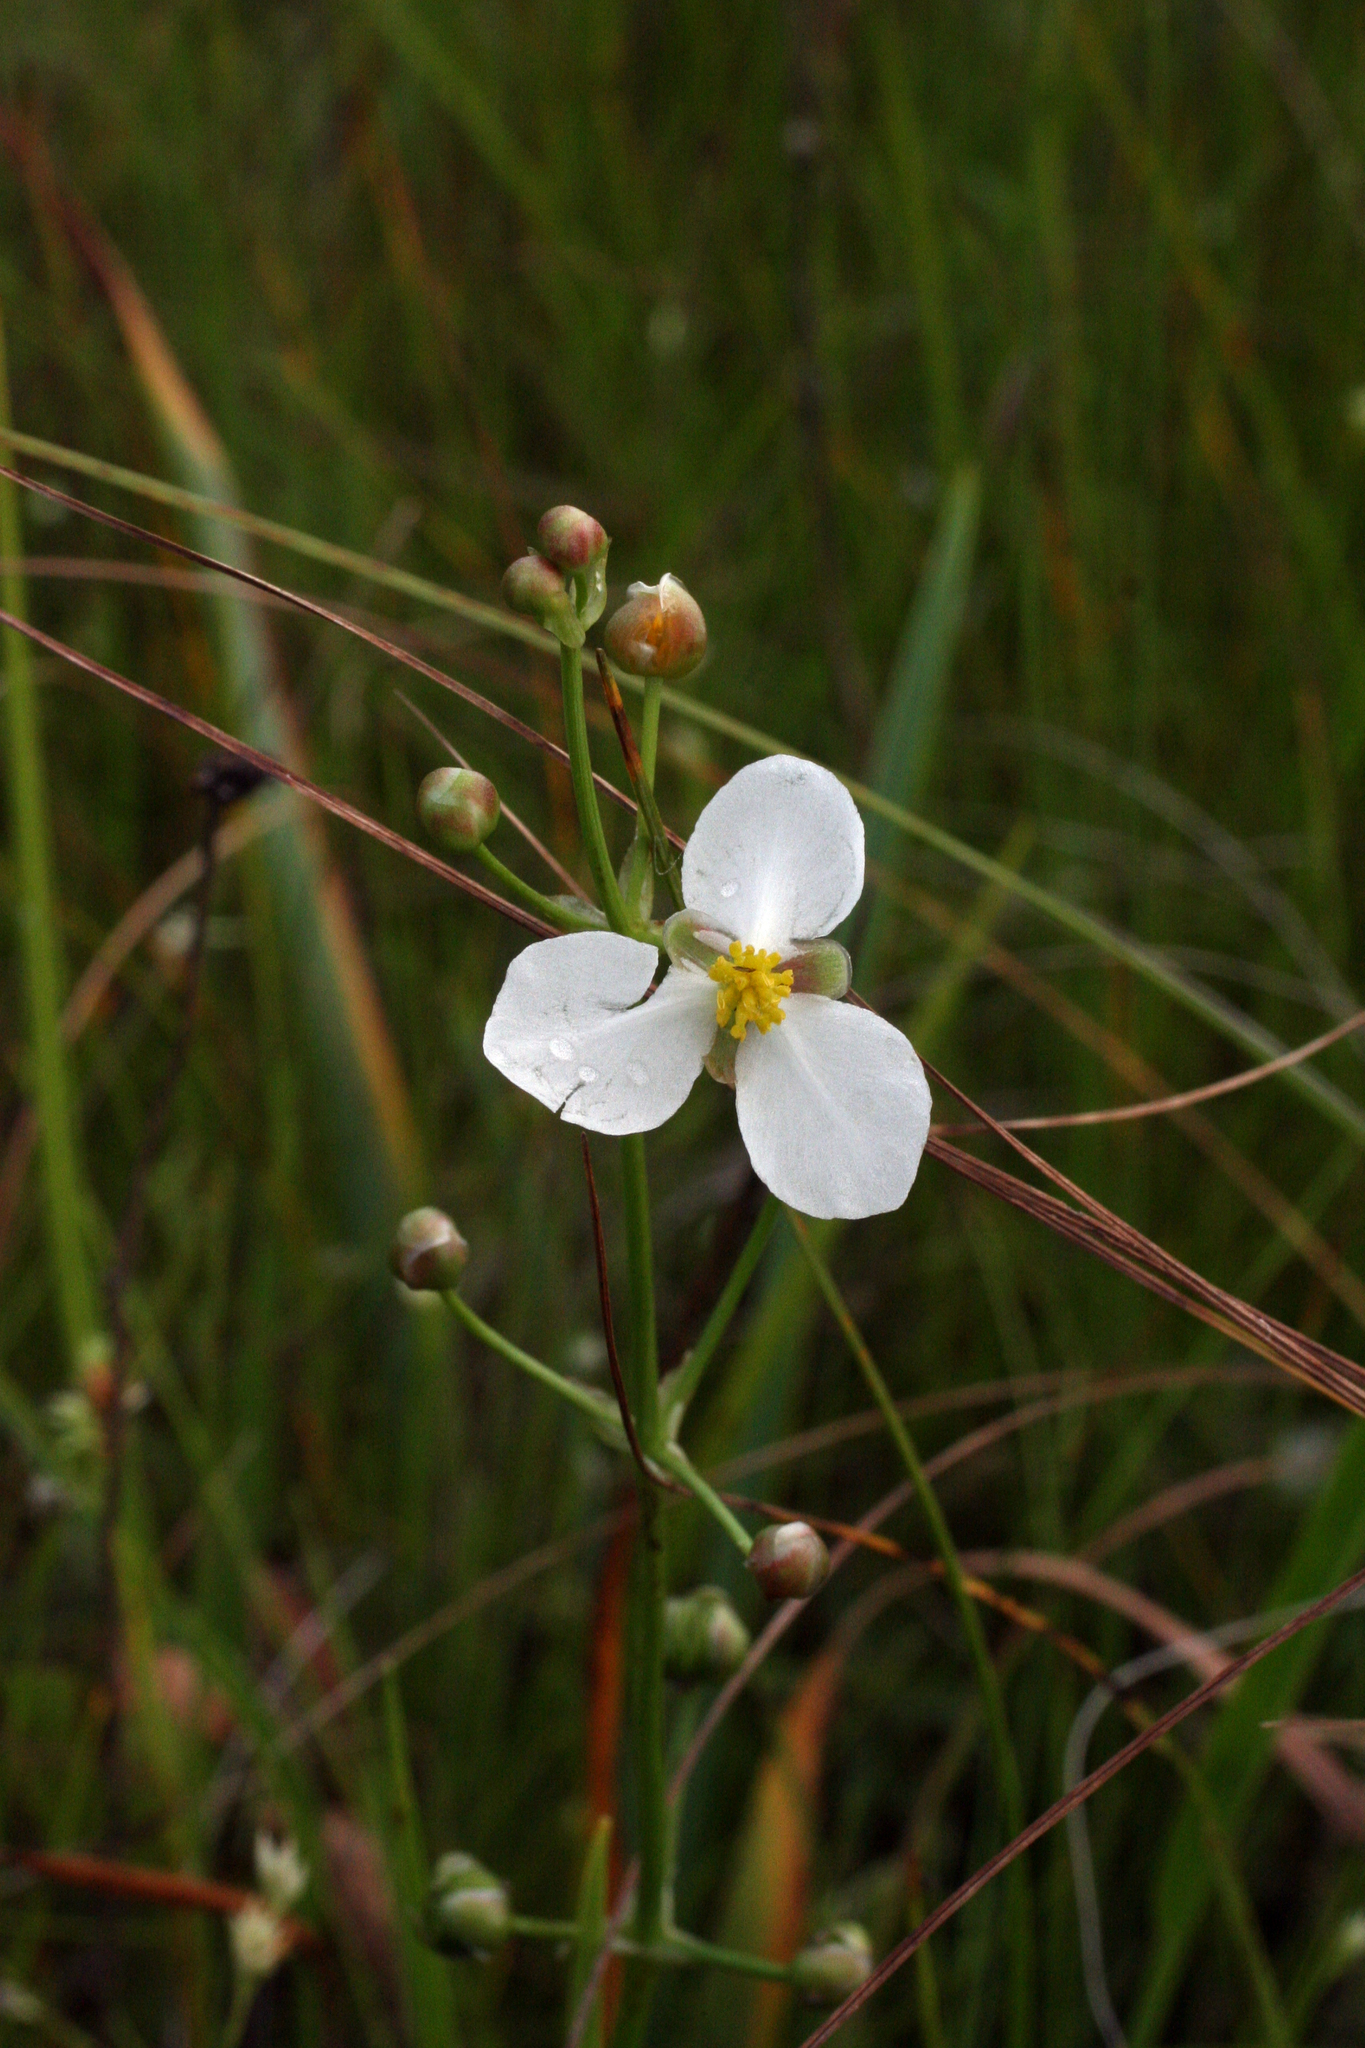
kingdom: Plantae
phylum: Tracheophyta
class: Liliopsida
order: Alismatales
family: Alismataceae
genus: Sagittaria
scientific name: Sagittaria trifolia
